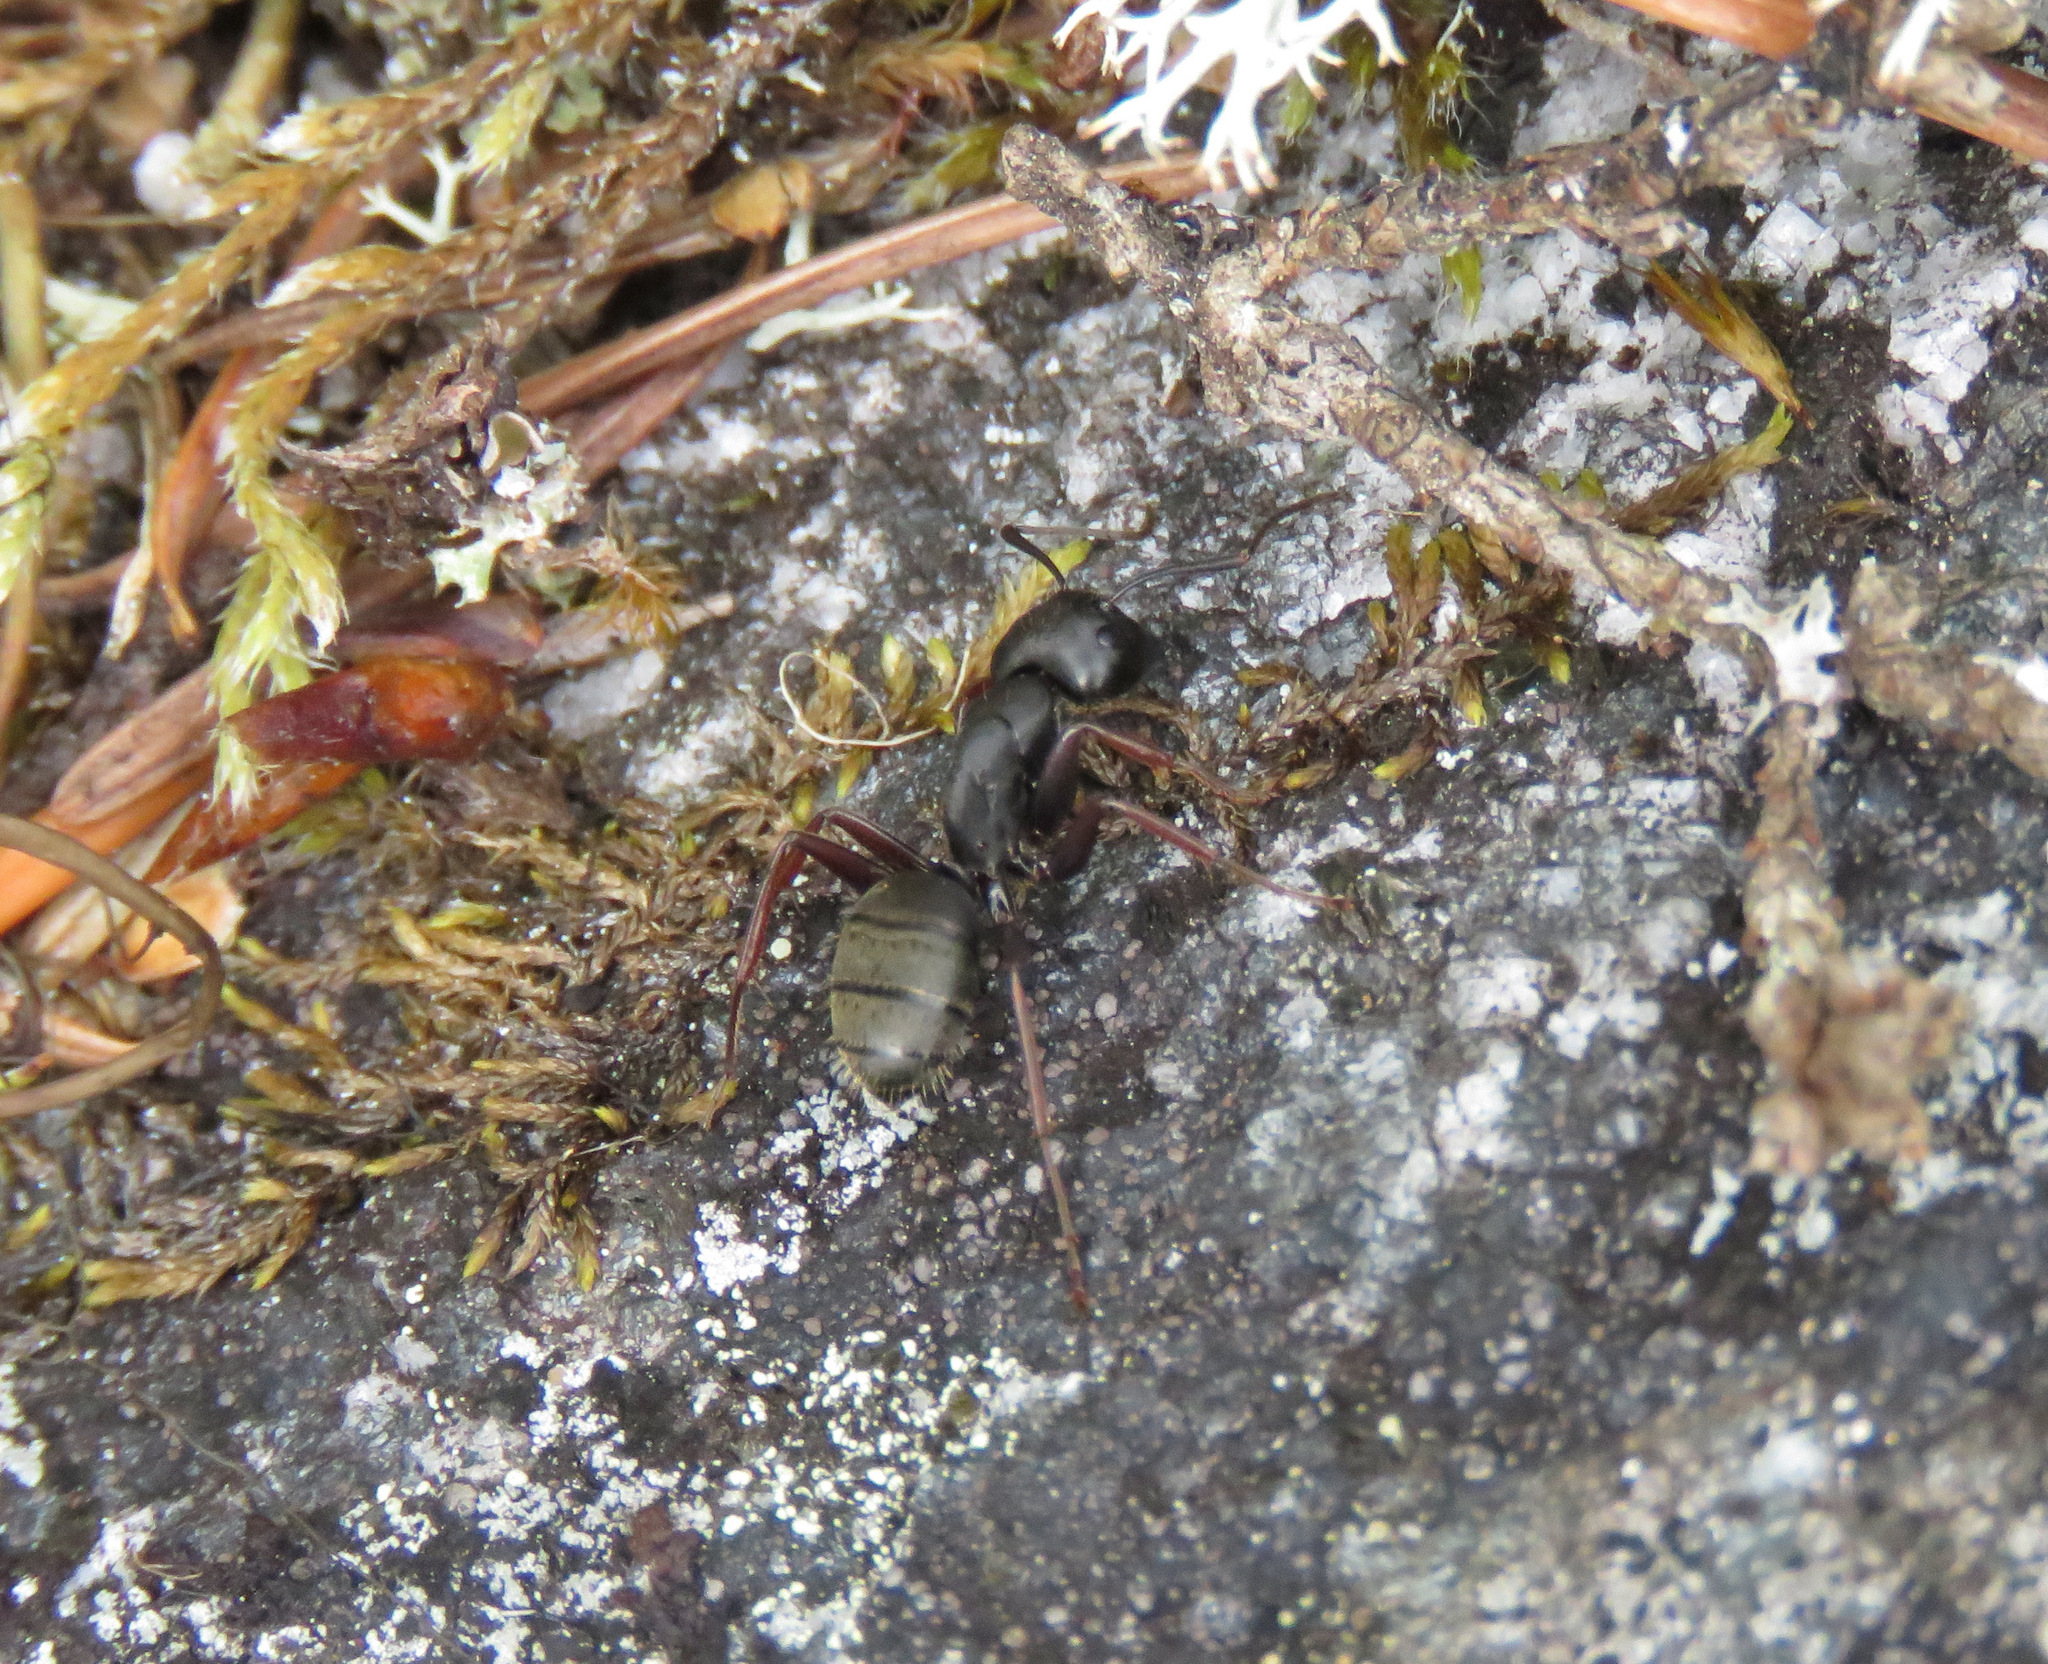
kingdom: Animalia
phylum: Arthropoda
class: Insecta
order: Hymenoptera
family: Formicidae
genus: Camponotus
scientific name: Camponotus modoc
